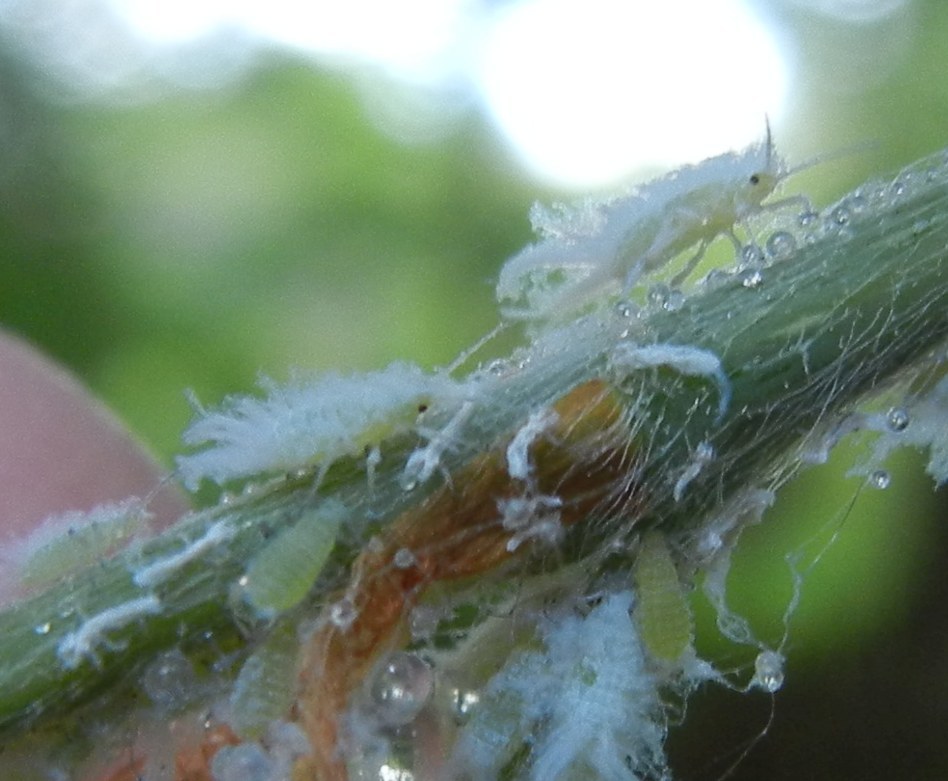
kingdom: Animalia
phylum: Arthropoda
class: Insecta
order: Hemiptera
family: Aphididae
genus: Phyllaphis
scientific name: Phyllaphis fagi
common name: Beech aphid
